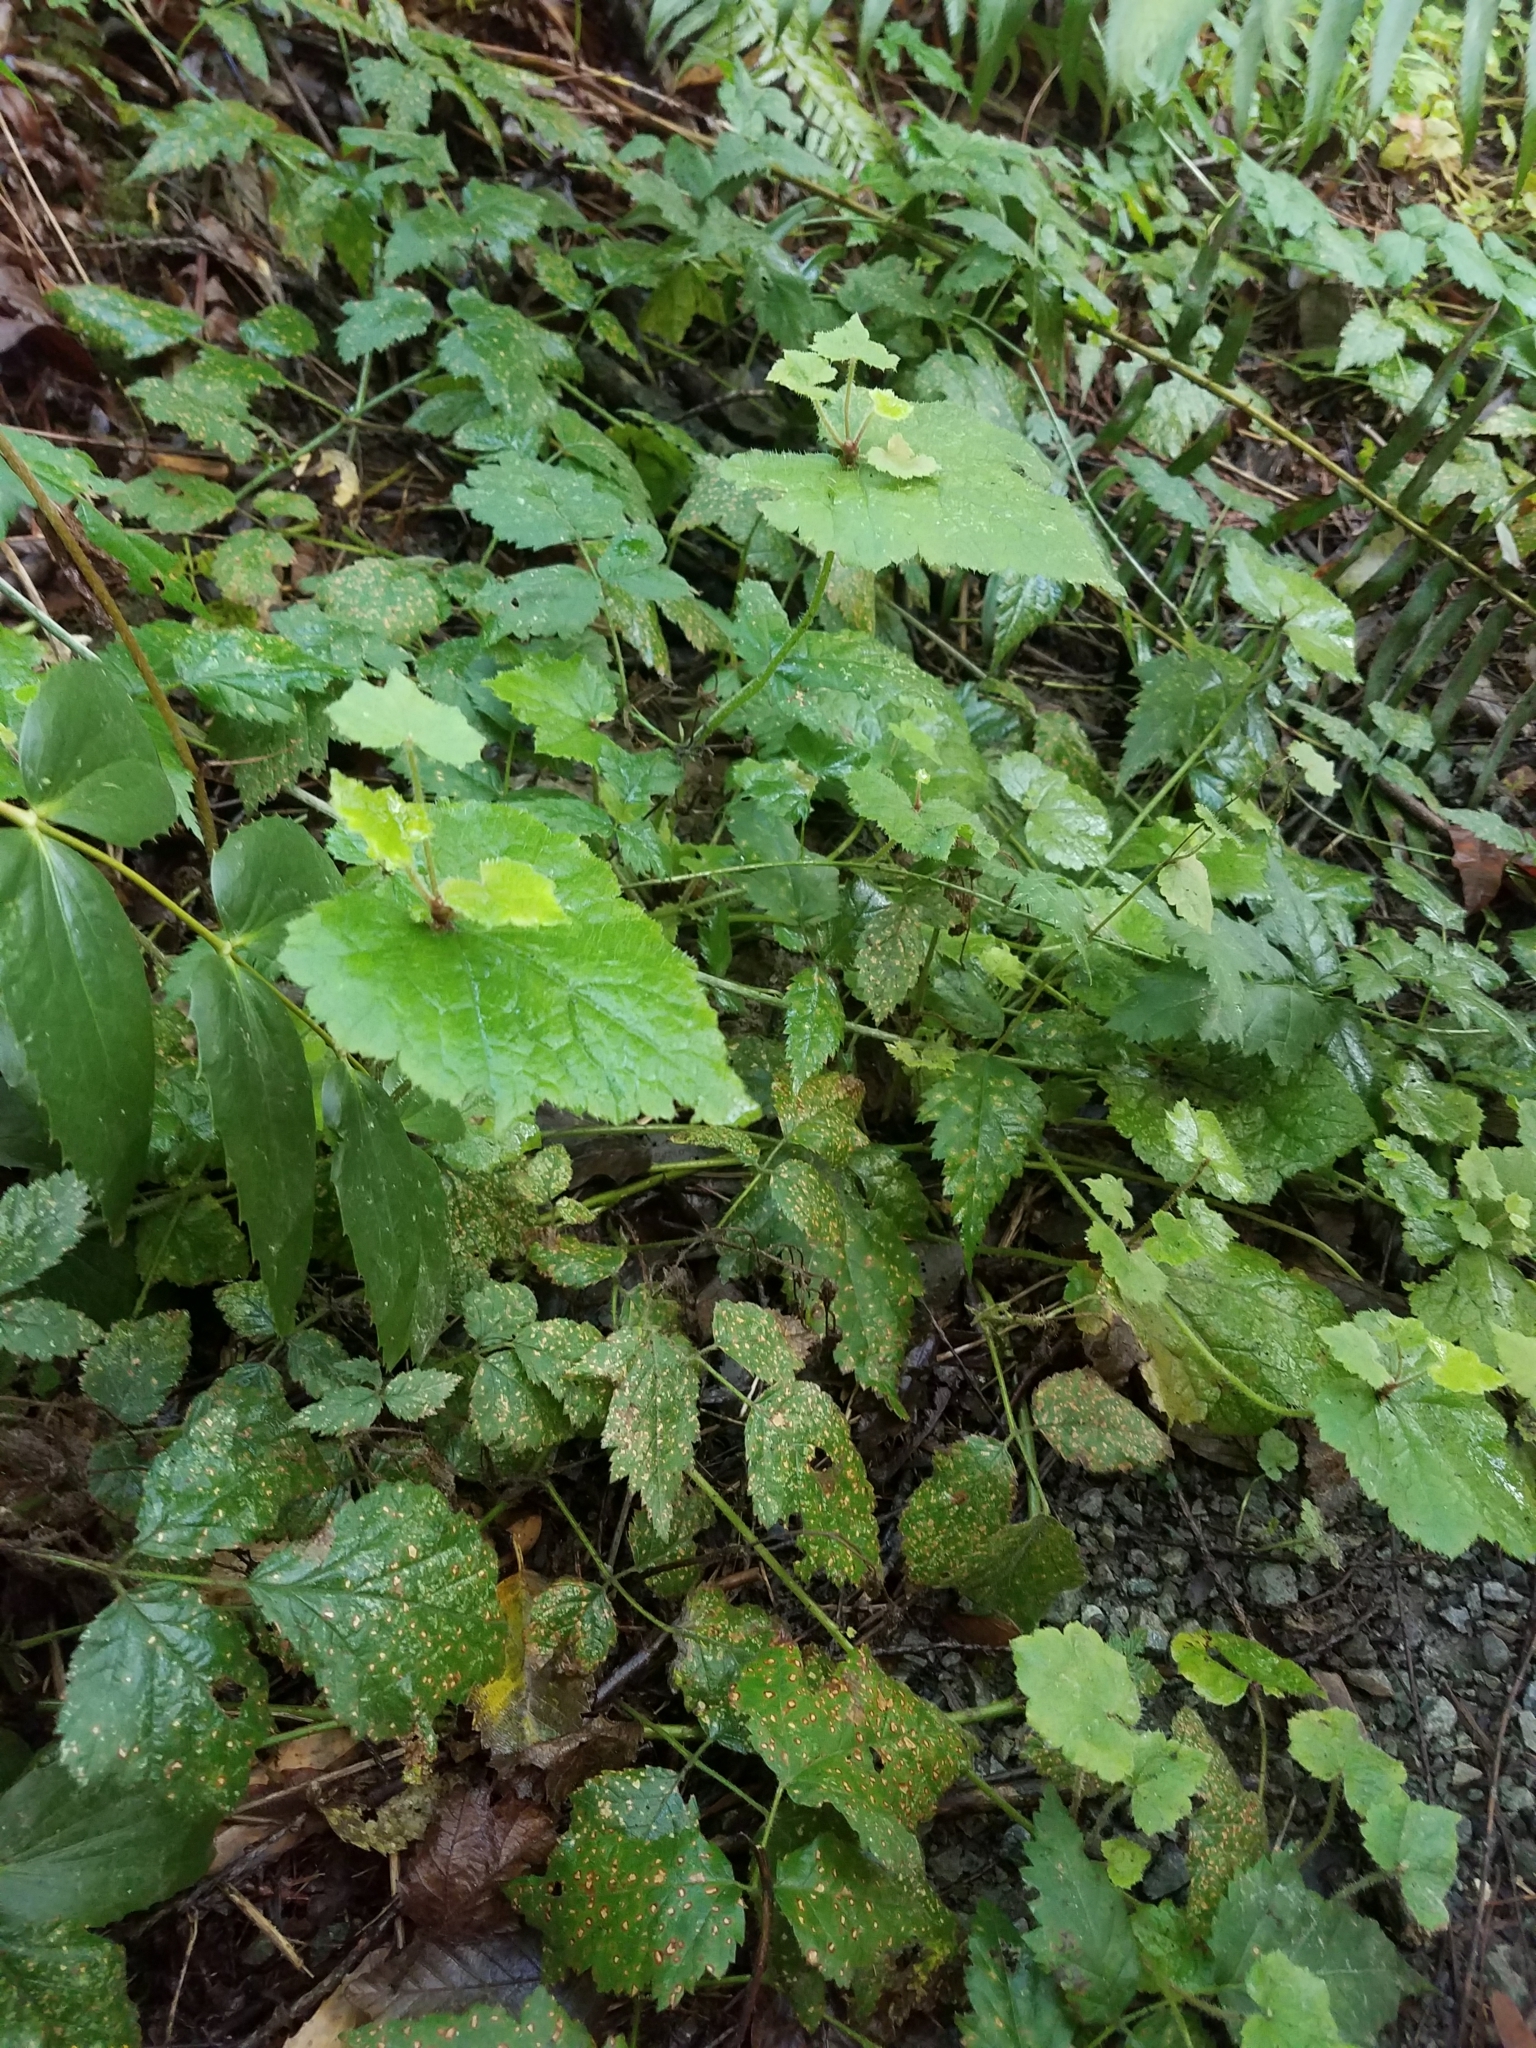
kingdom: Plantae
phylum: Tracheophyta
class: Magnoliopsida
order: Saxifragales
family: Saxifragaceae
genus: Tolmiea
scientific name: Tolmiea menziesii
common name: Pick-a-back-plant
